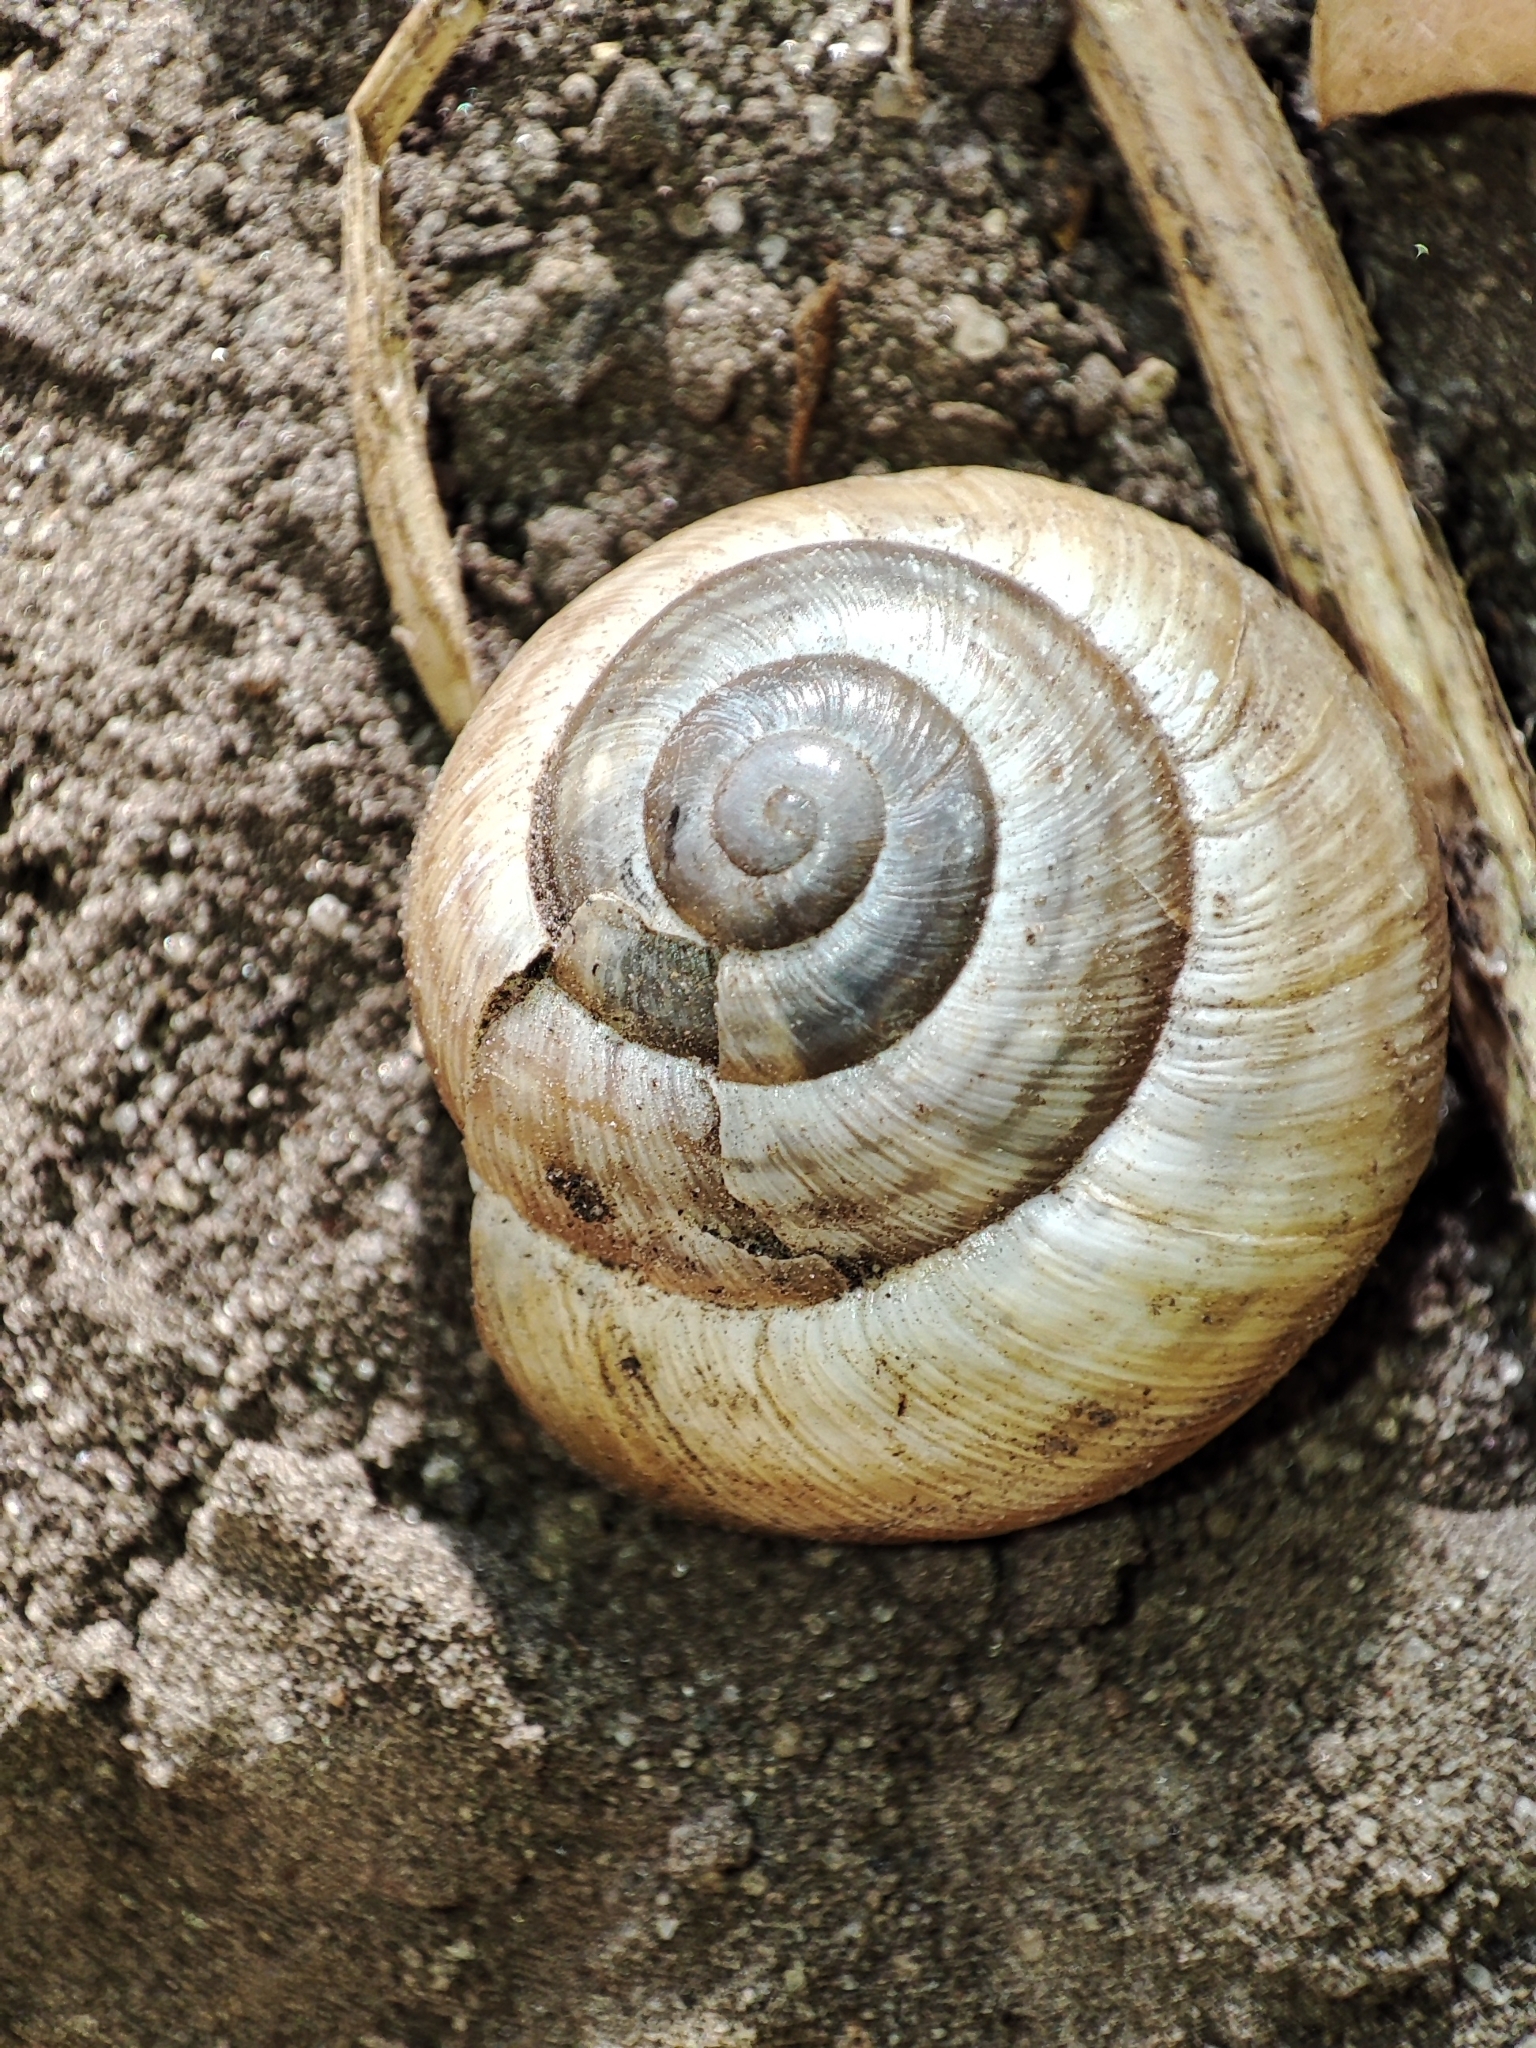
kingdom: Animalia
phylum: Mollusca
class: Gastropoda
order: Stylommatophora
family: Helicidae
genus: Caucasotachea
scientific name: Caucasotachea vindobonensis
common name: European helicid land snail
